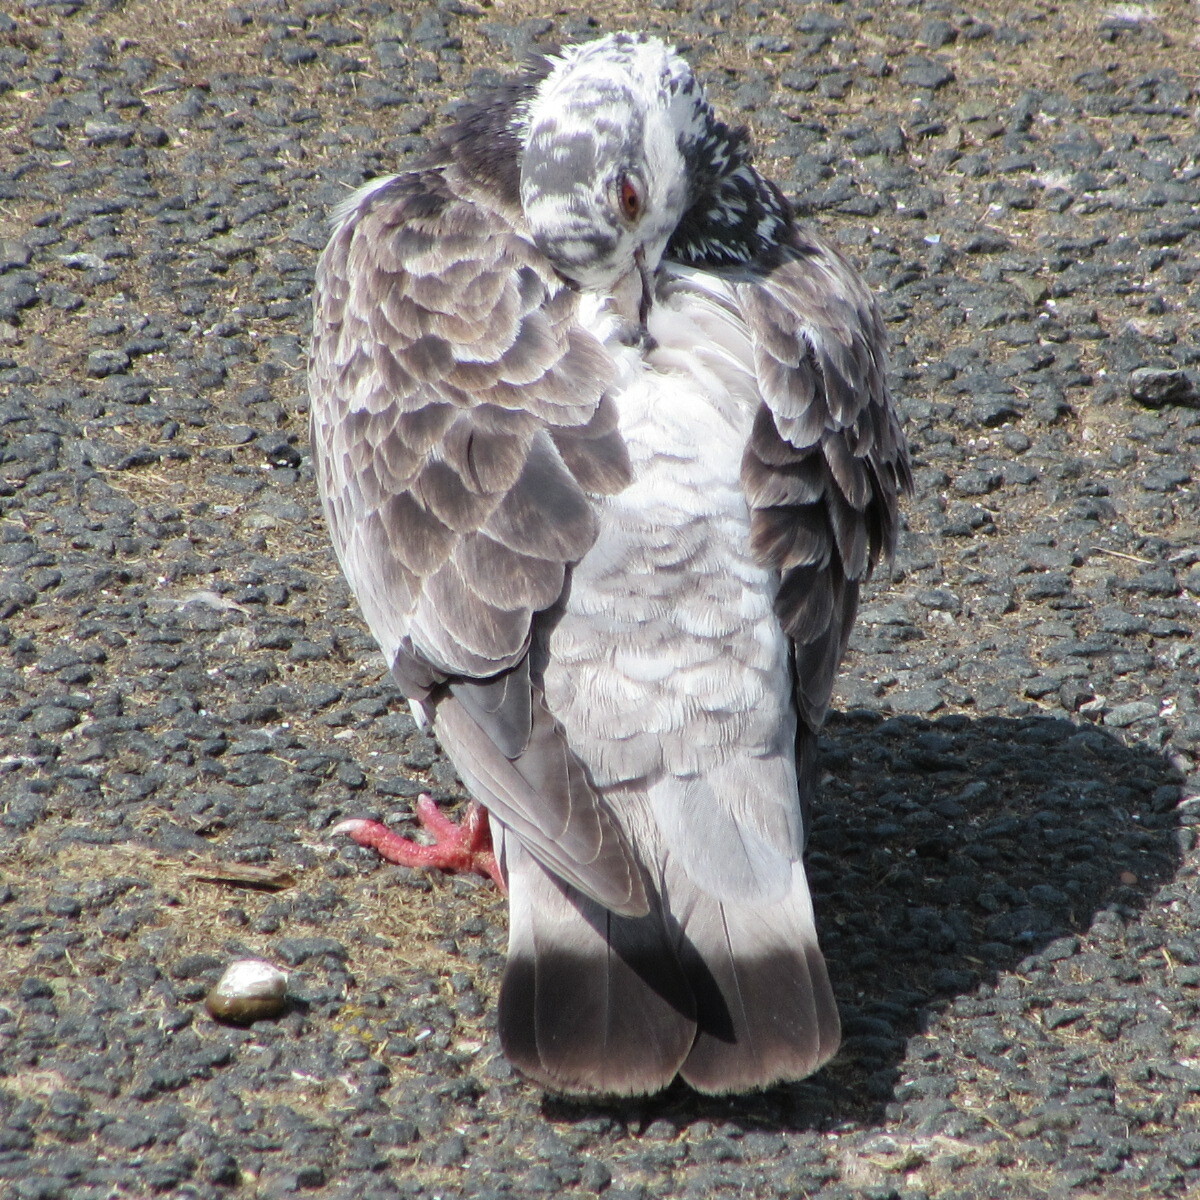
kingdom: Animalia
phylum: Chordata
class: Aves
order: Columbiformes
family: Columbidae
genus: Columba
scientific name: Columba livia
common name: Rock pigeon
